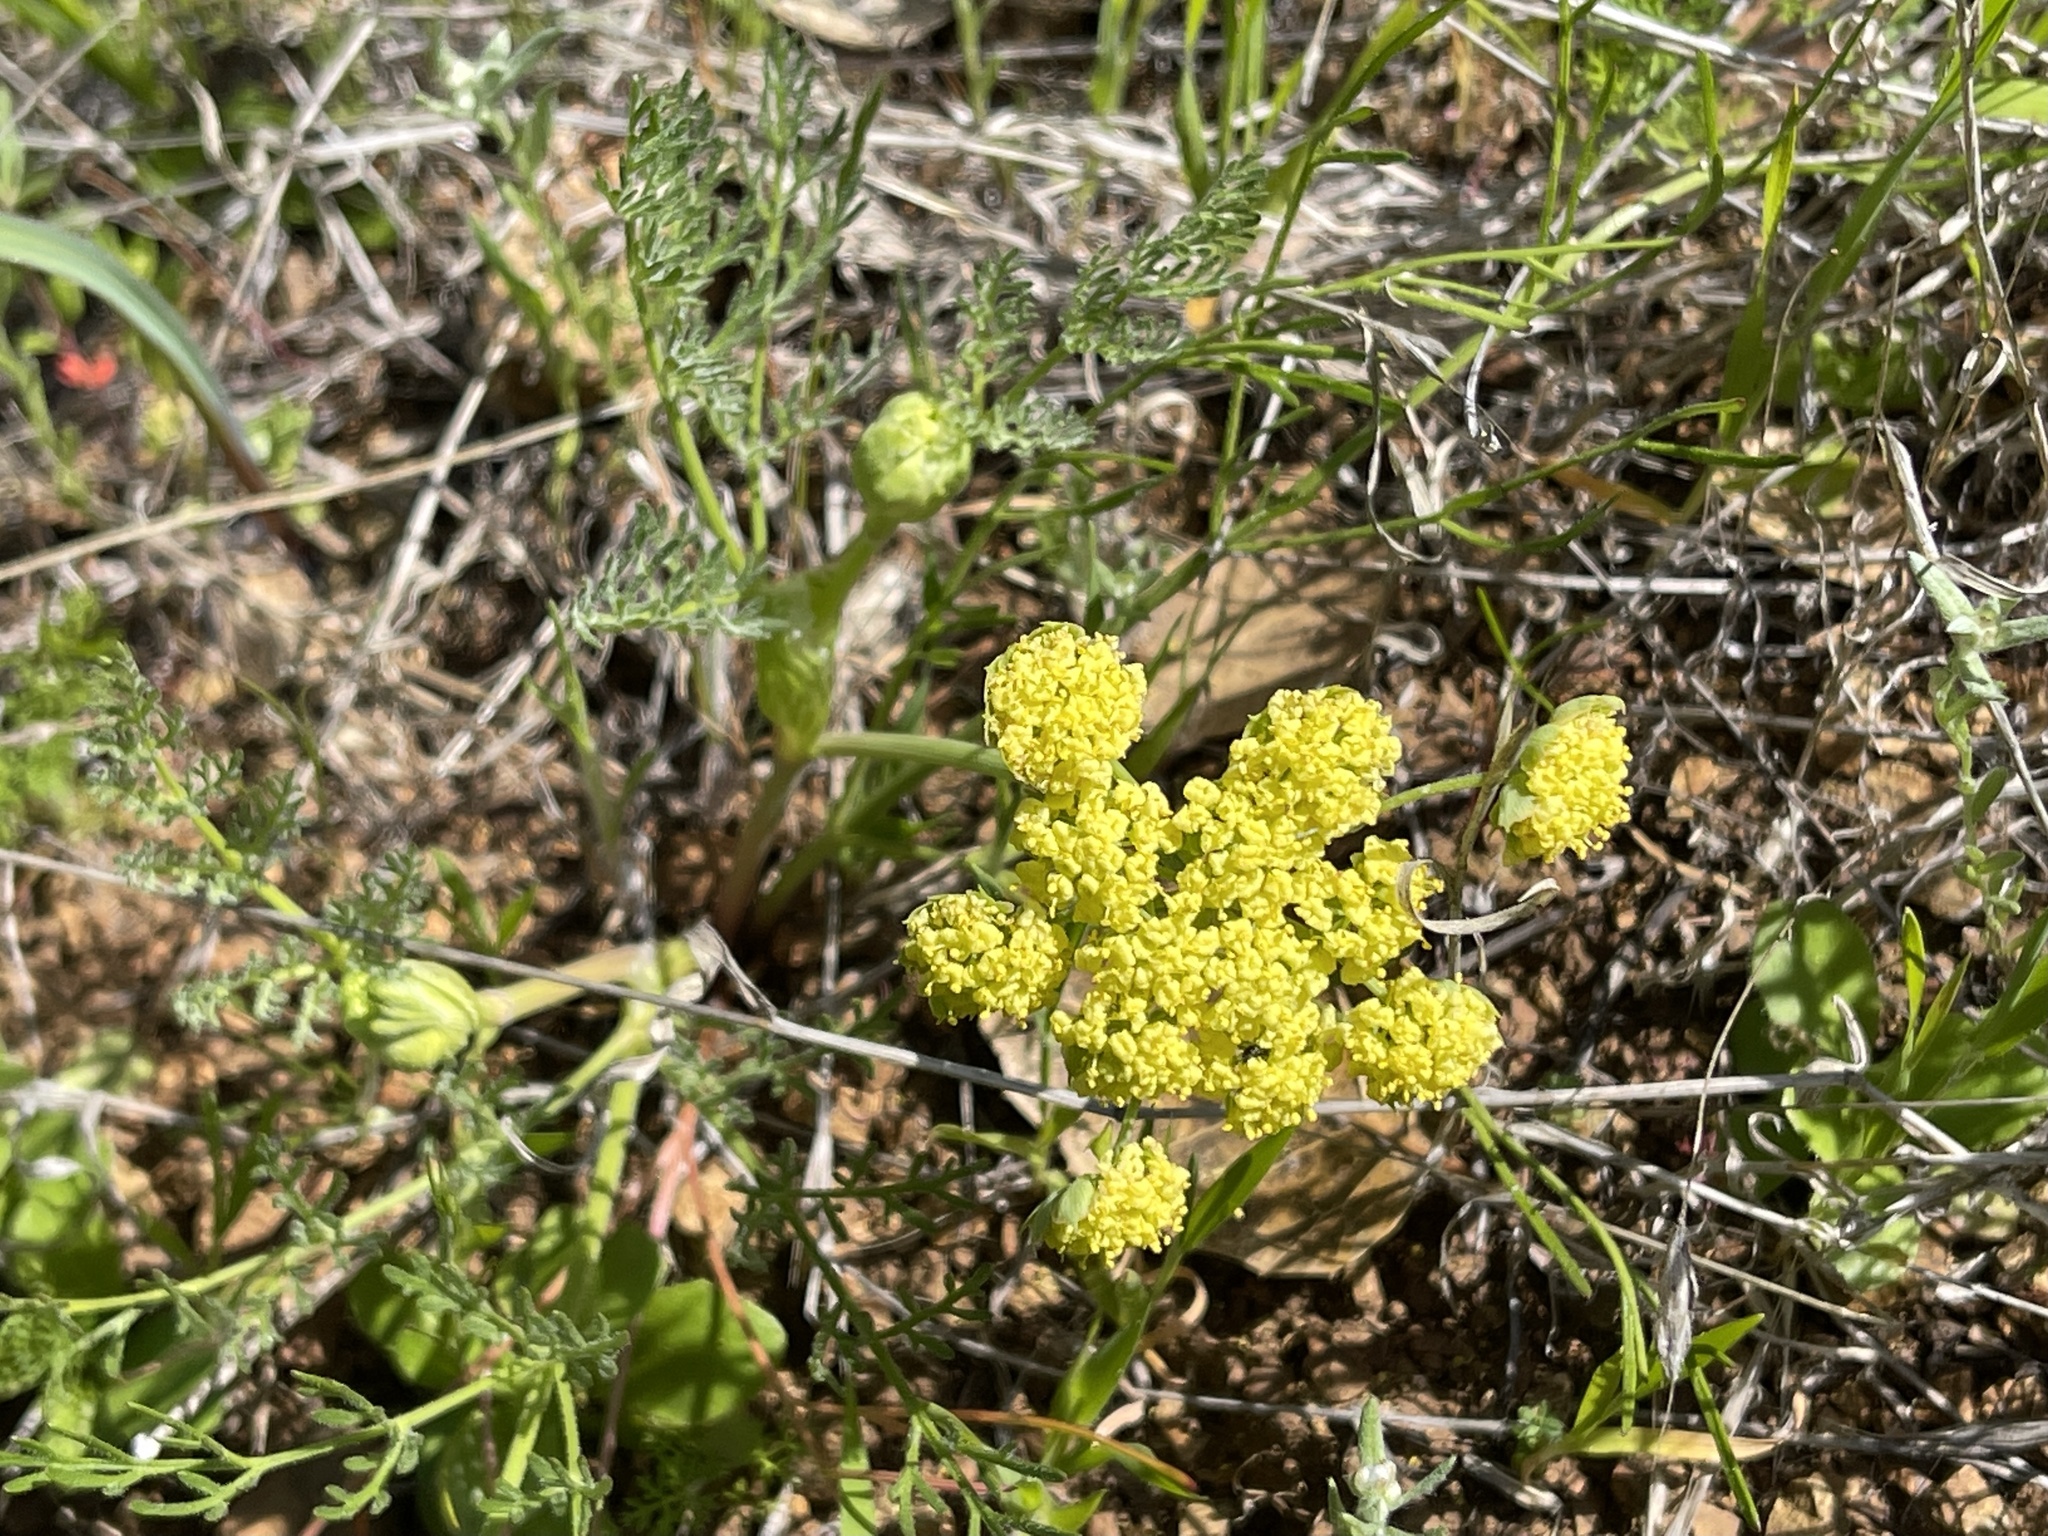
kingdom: Plantae
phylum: Tracheophyta
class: Magnoliopsida
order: Apiales
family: Apiaceae
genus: Lomatium
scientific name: Lomatium utriculatum
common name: Fine-leaf desert-parsley
